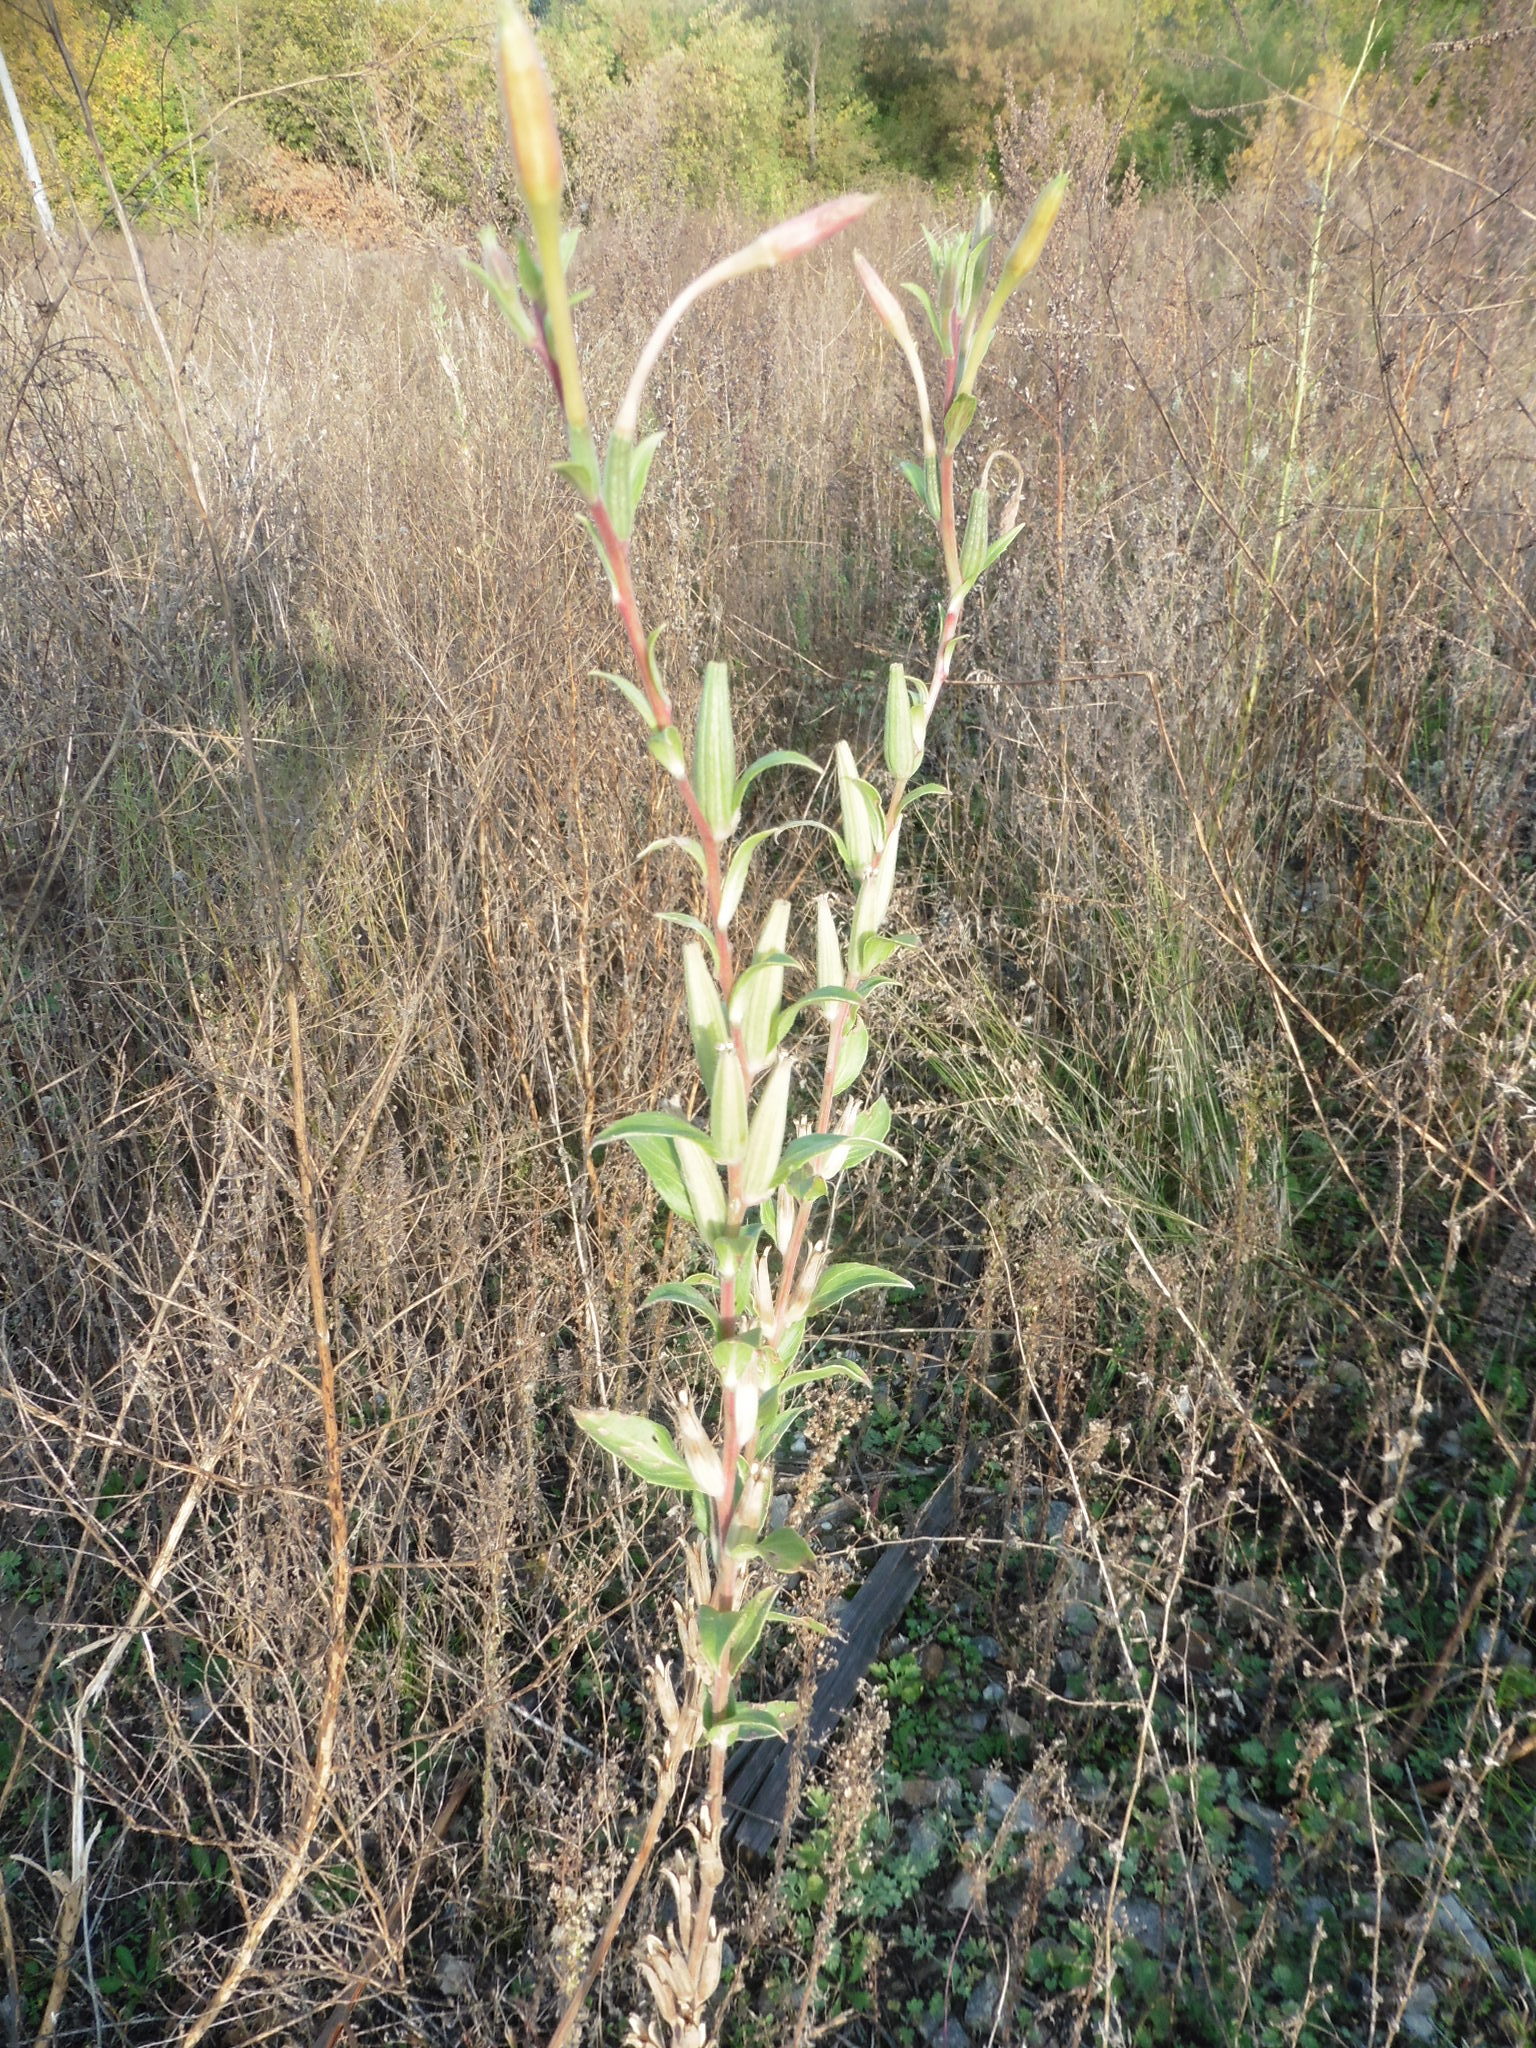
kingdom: Plantae
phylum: Tracheophyta
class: Magnoliopsida
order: Myrtales
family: Onagraceae
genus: Oenothera
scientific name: Oenothera villosa
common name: Hairy evening-primrose
